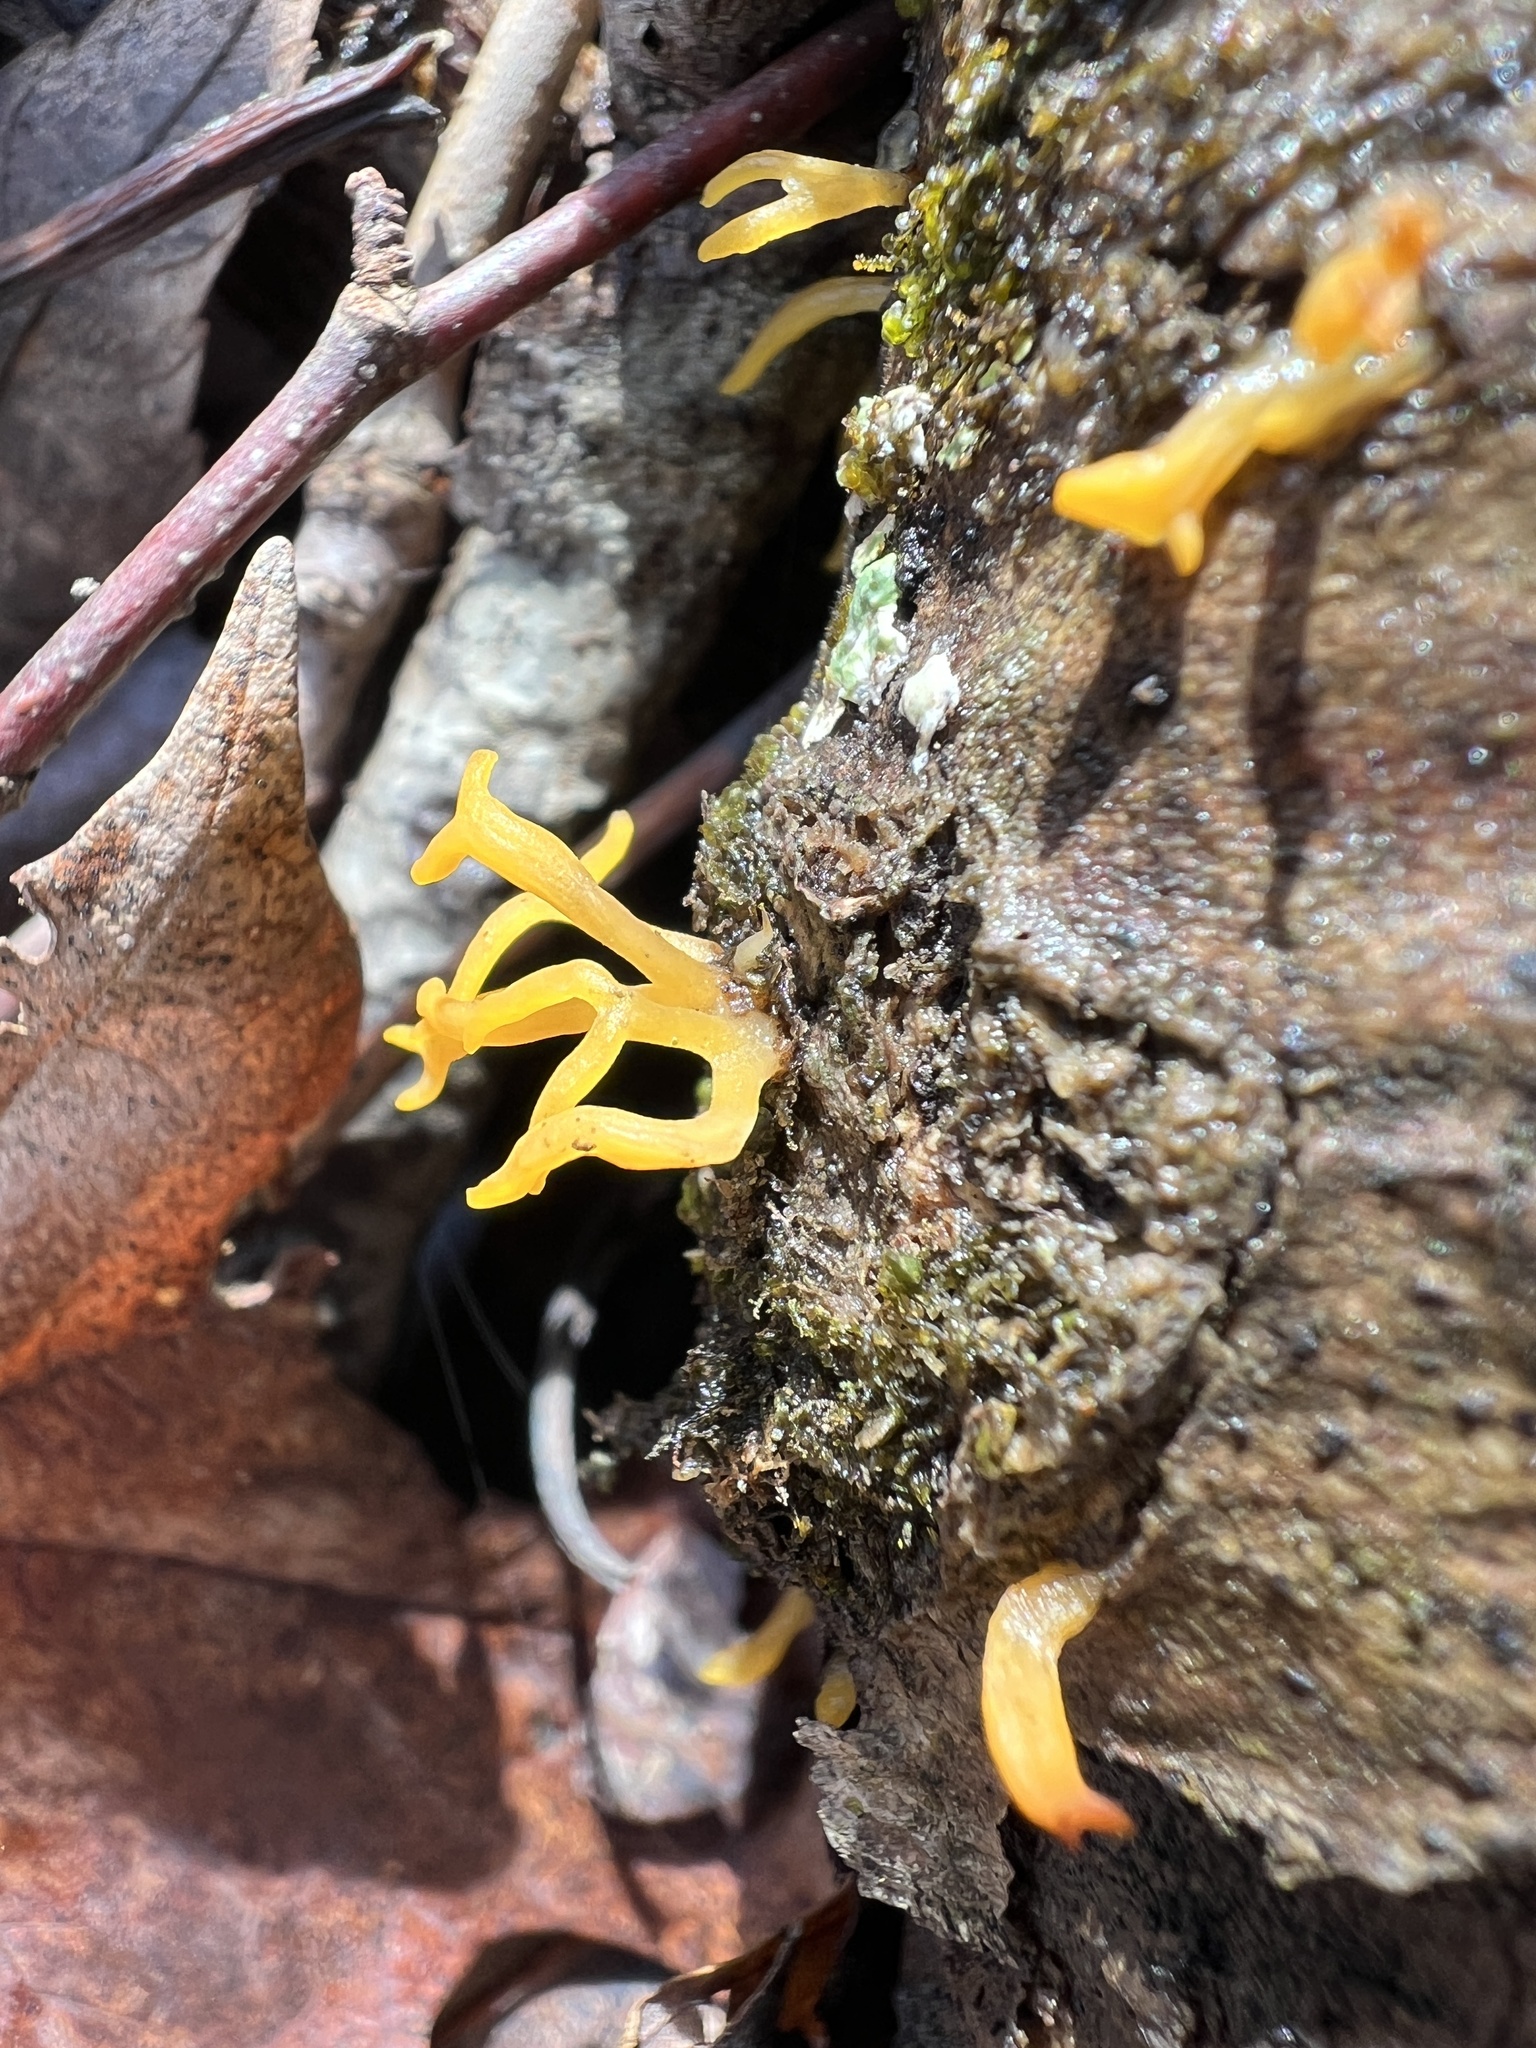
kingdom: Fungi
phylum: Basidiomycota
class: Dacrymycetes
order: Dacrymycetales
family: Dacrymycetaceae
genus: Calocera
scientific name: Calocera cornea
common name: Small stagshorn
